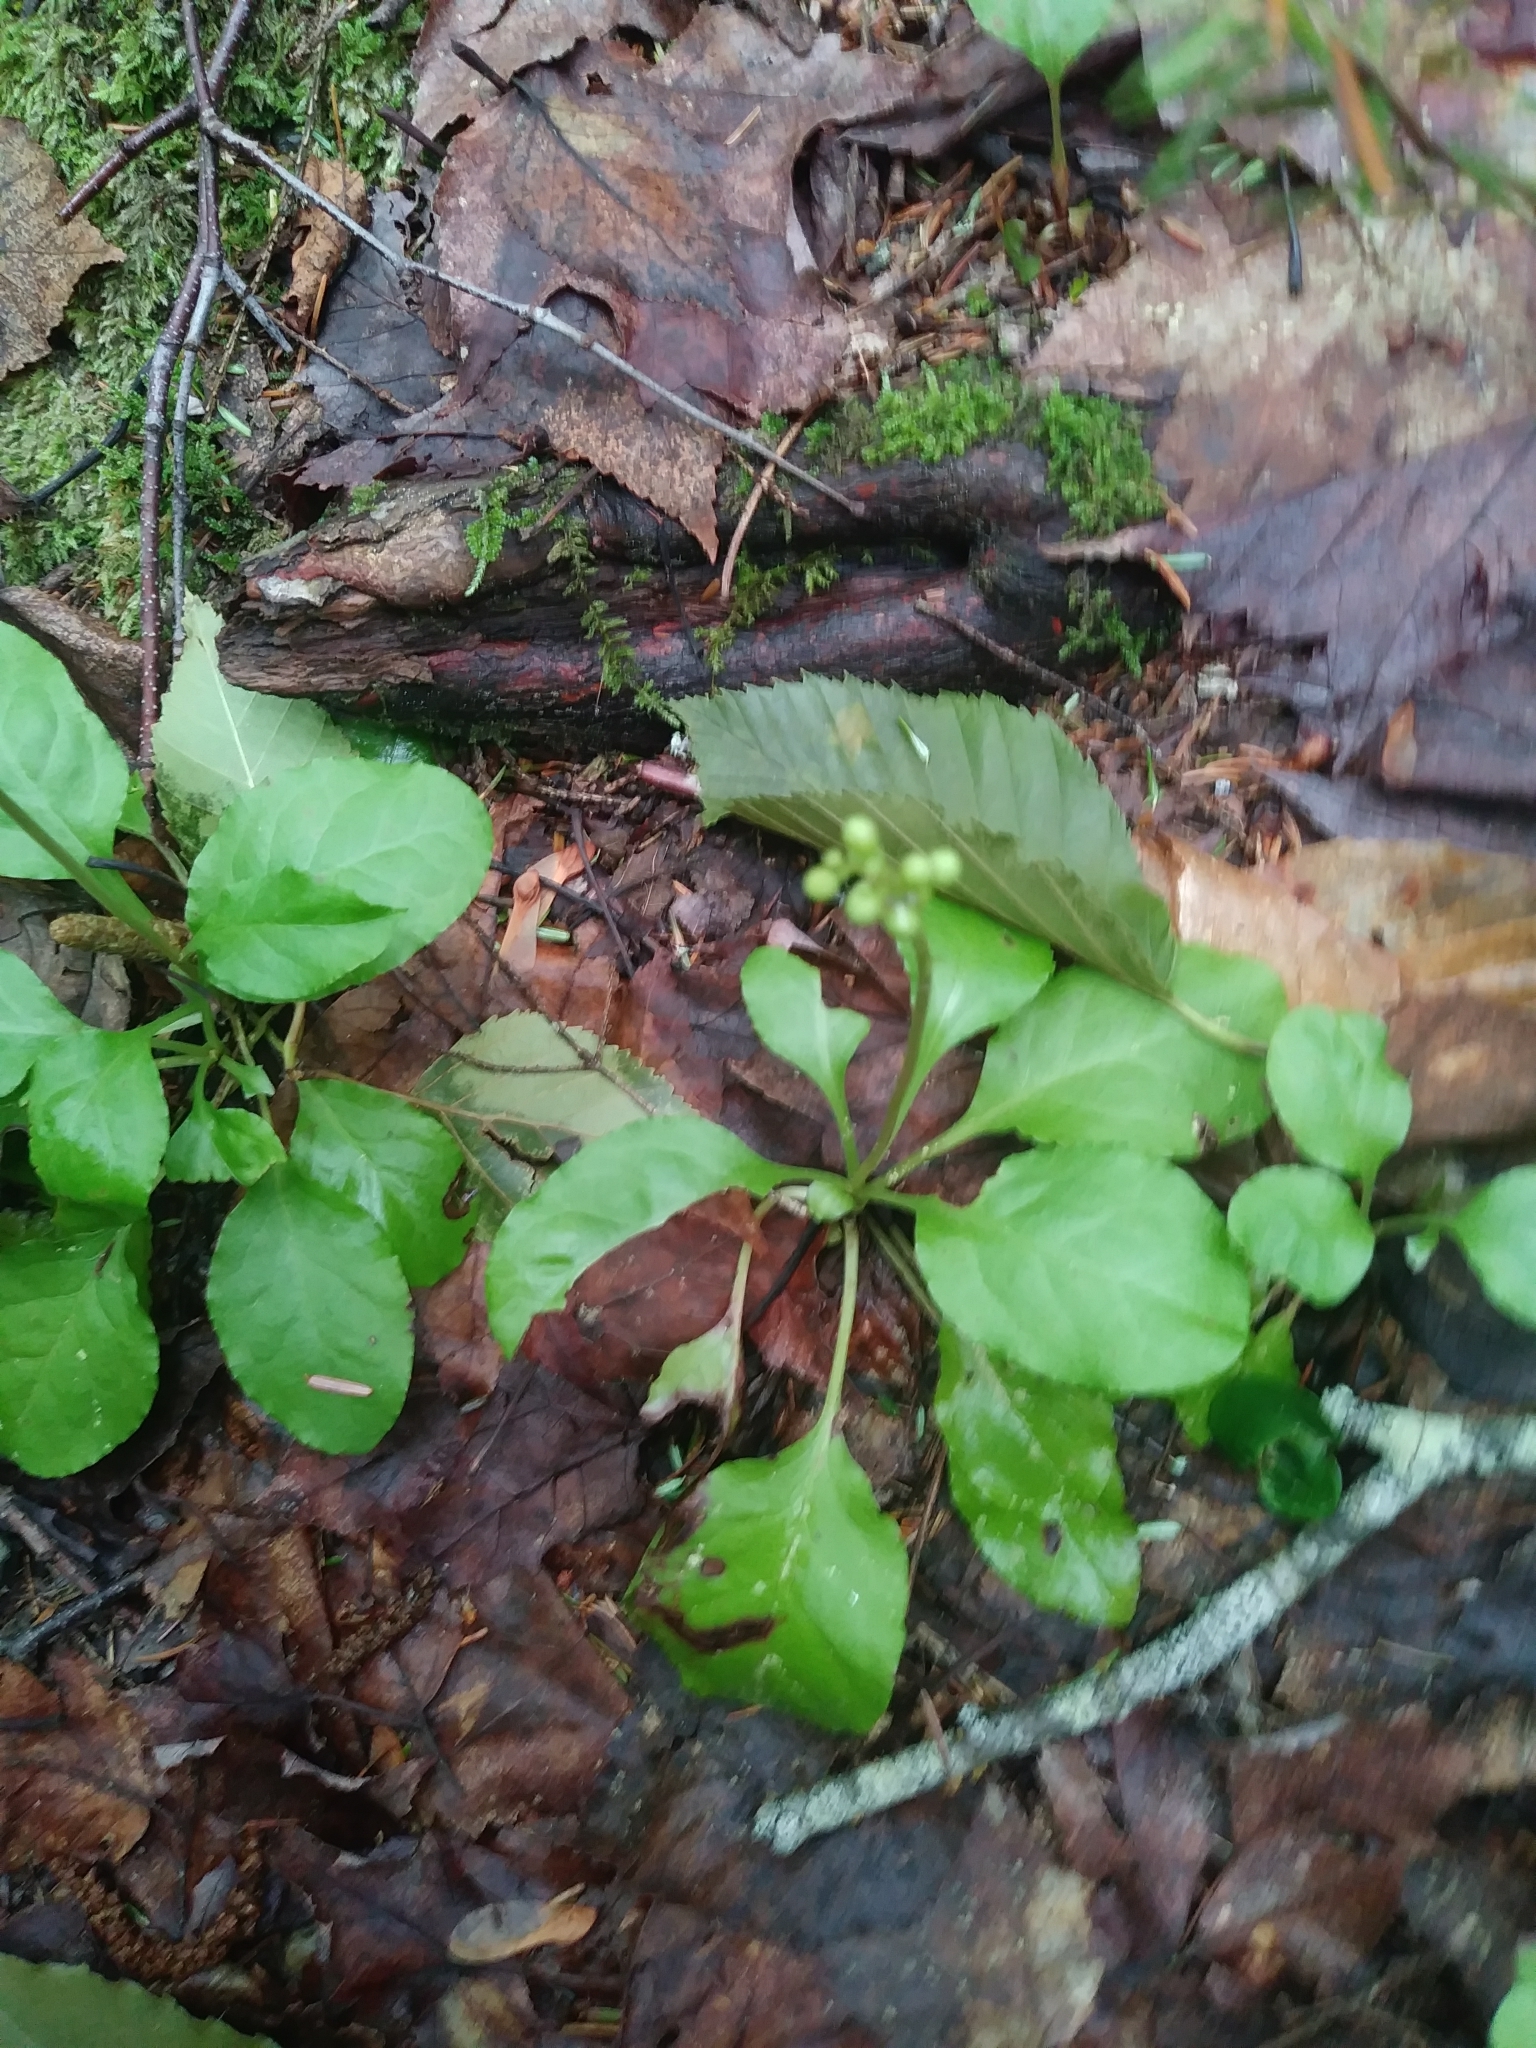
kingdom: Plantae
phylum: Tracheophyta
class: Magnoliopsida
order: Ericales
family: Ericaceae
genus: Pyrola
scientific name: Pyrola elliptica
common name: Shinleaf
